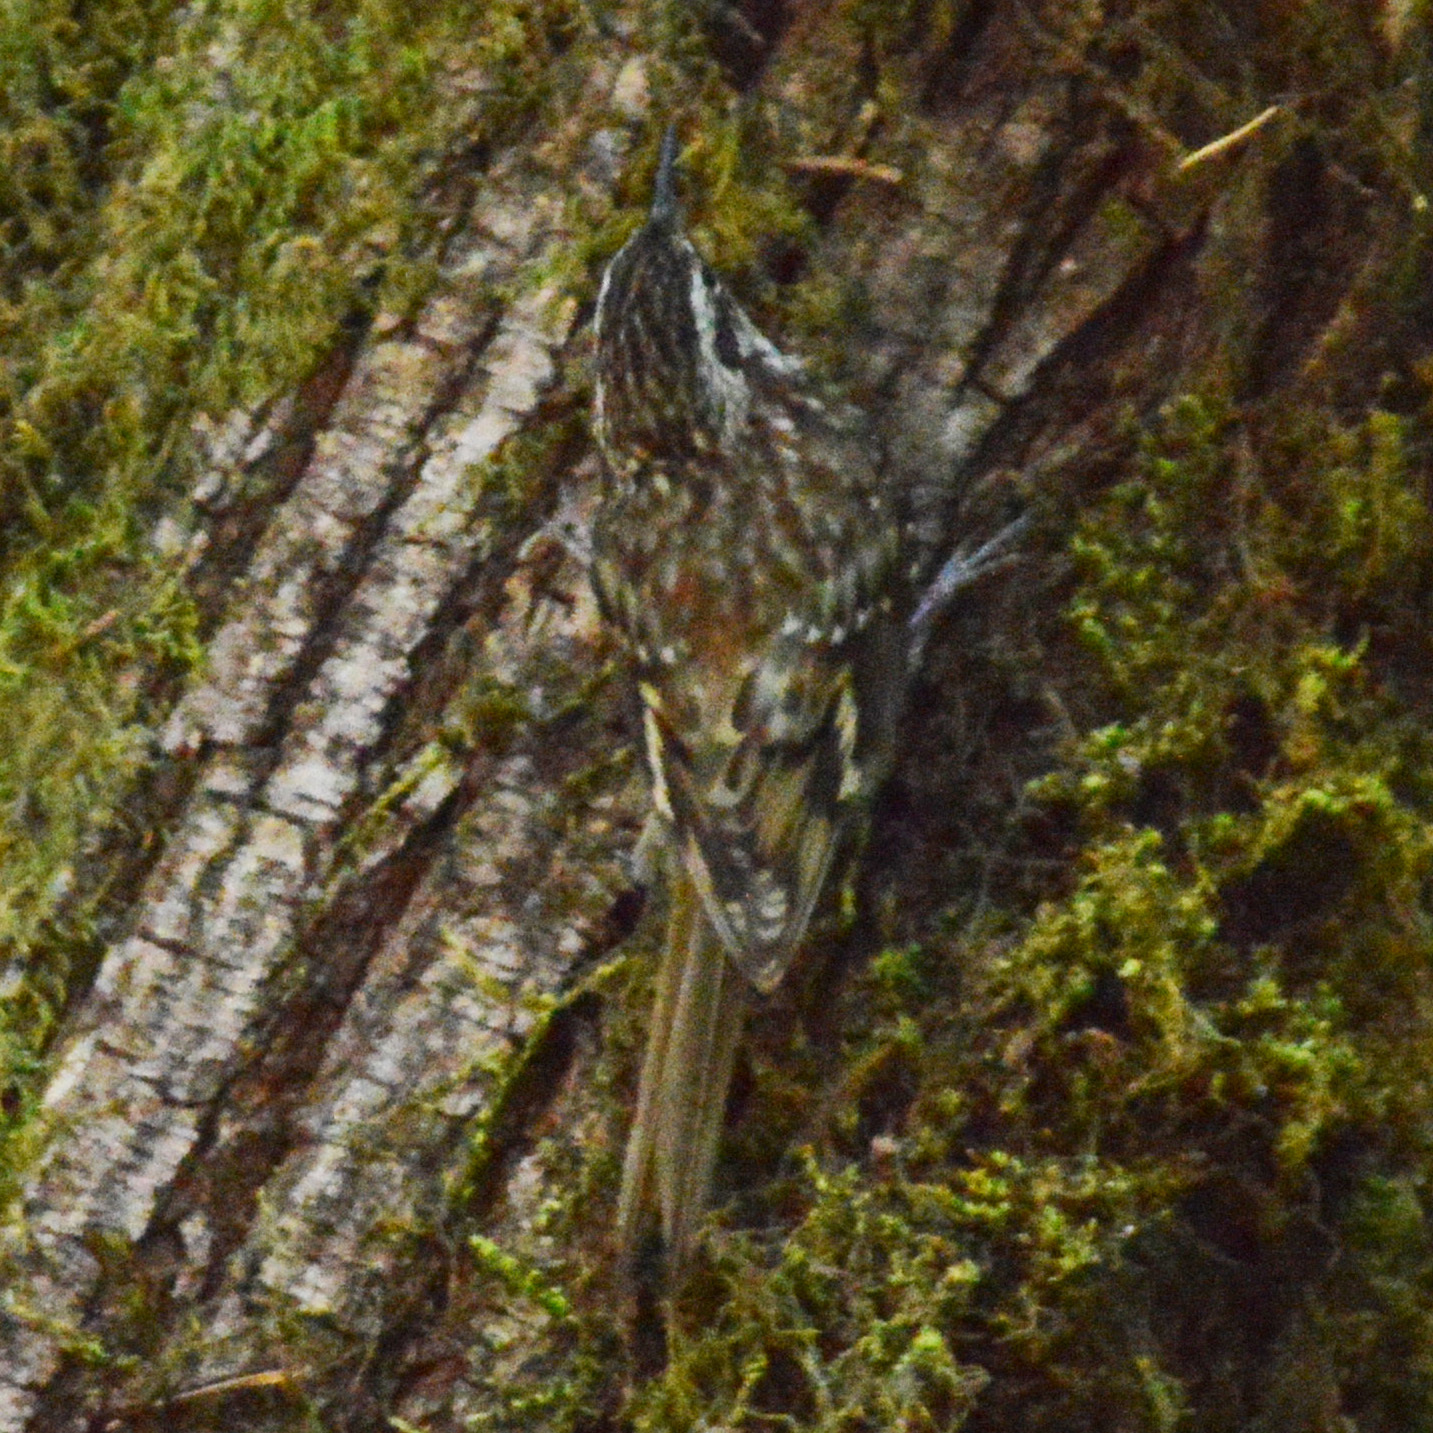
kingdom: Animalia
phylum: Chordata
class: Aves
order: Passeriformes
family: Certhiidae
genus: Certhia
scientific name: Certhia americana
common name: Brown creeper
